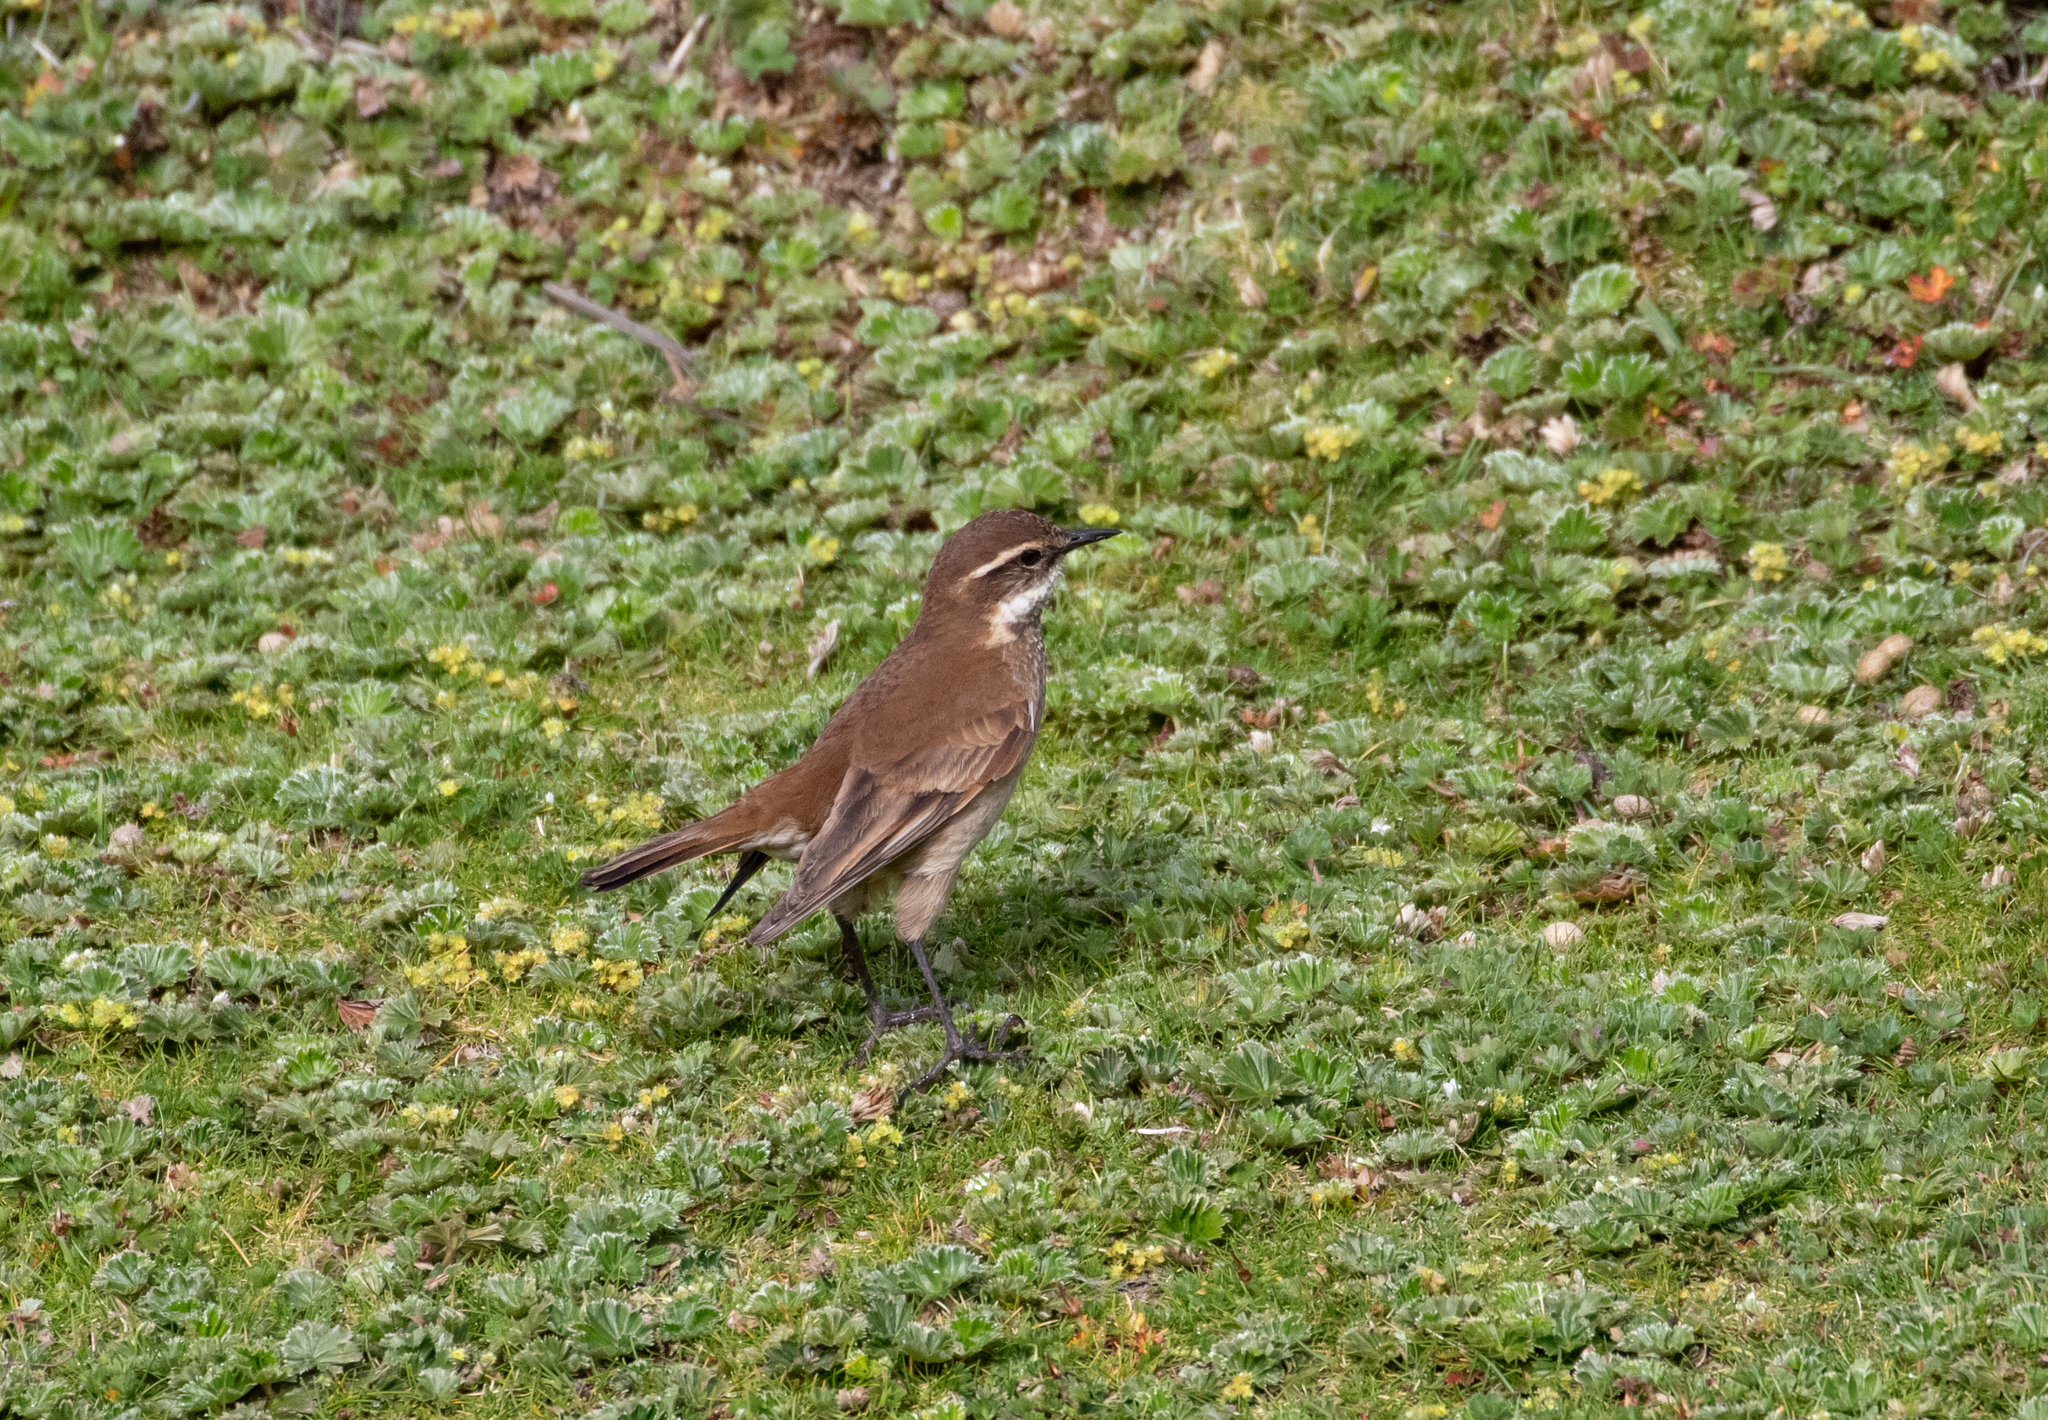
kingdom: Animalia
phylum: Chordata
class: Aves
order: Passeriformes
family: Furnariidae
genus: Cinclodes
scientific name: Cinclodes albidiventris
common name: Chestnut-winged cinclodes
